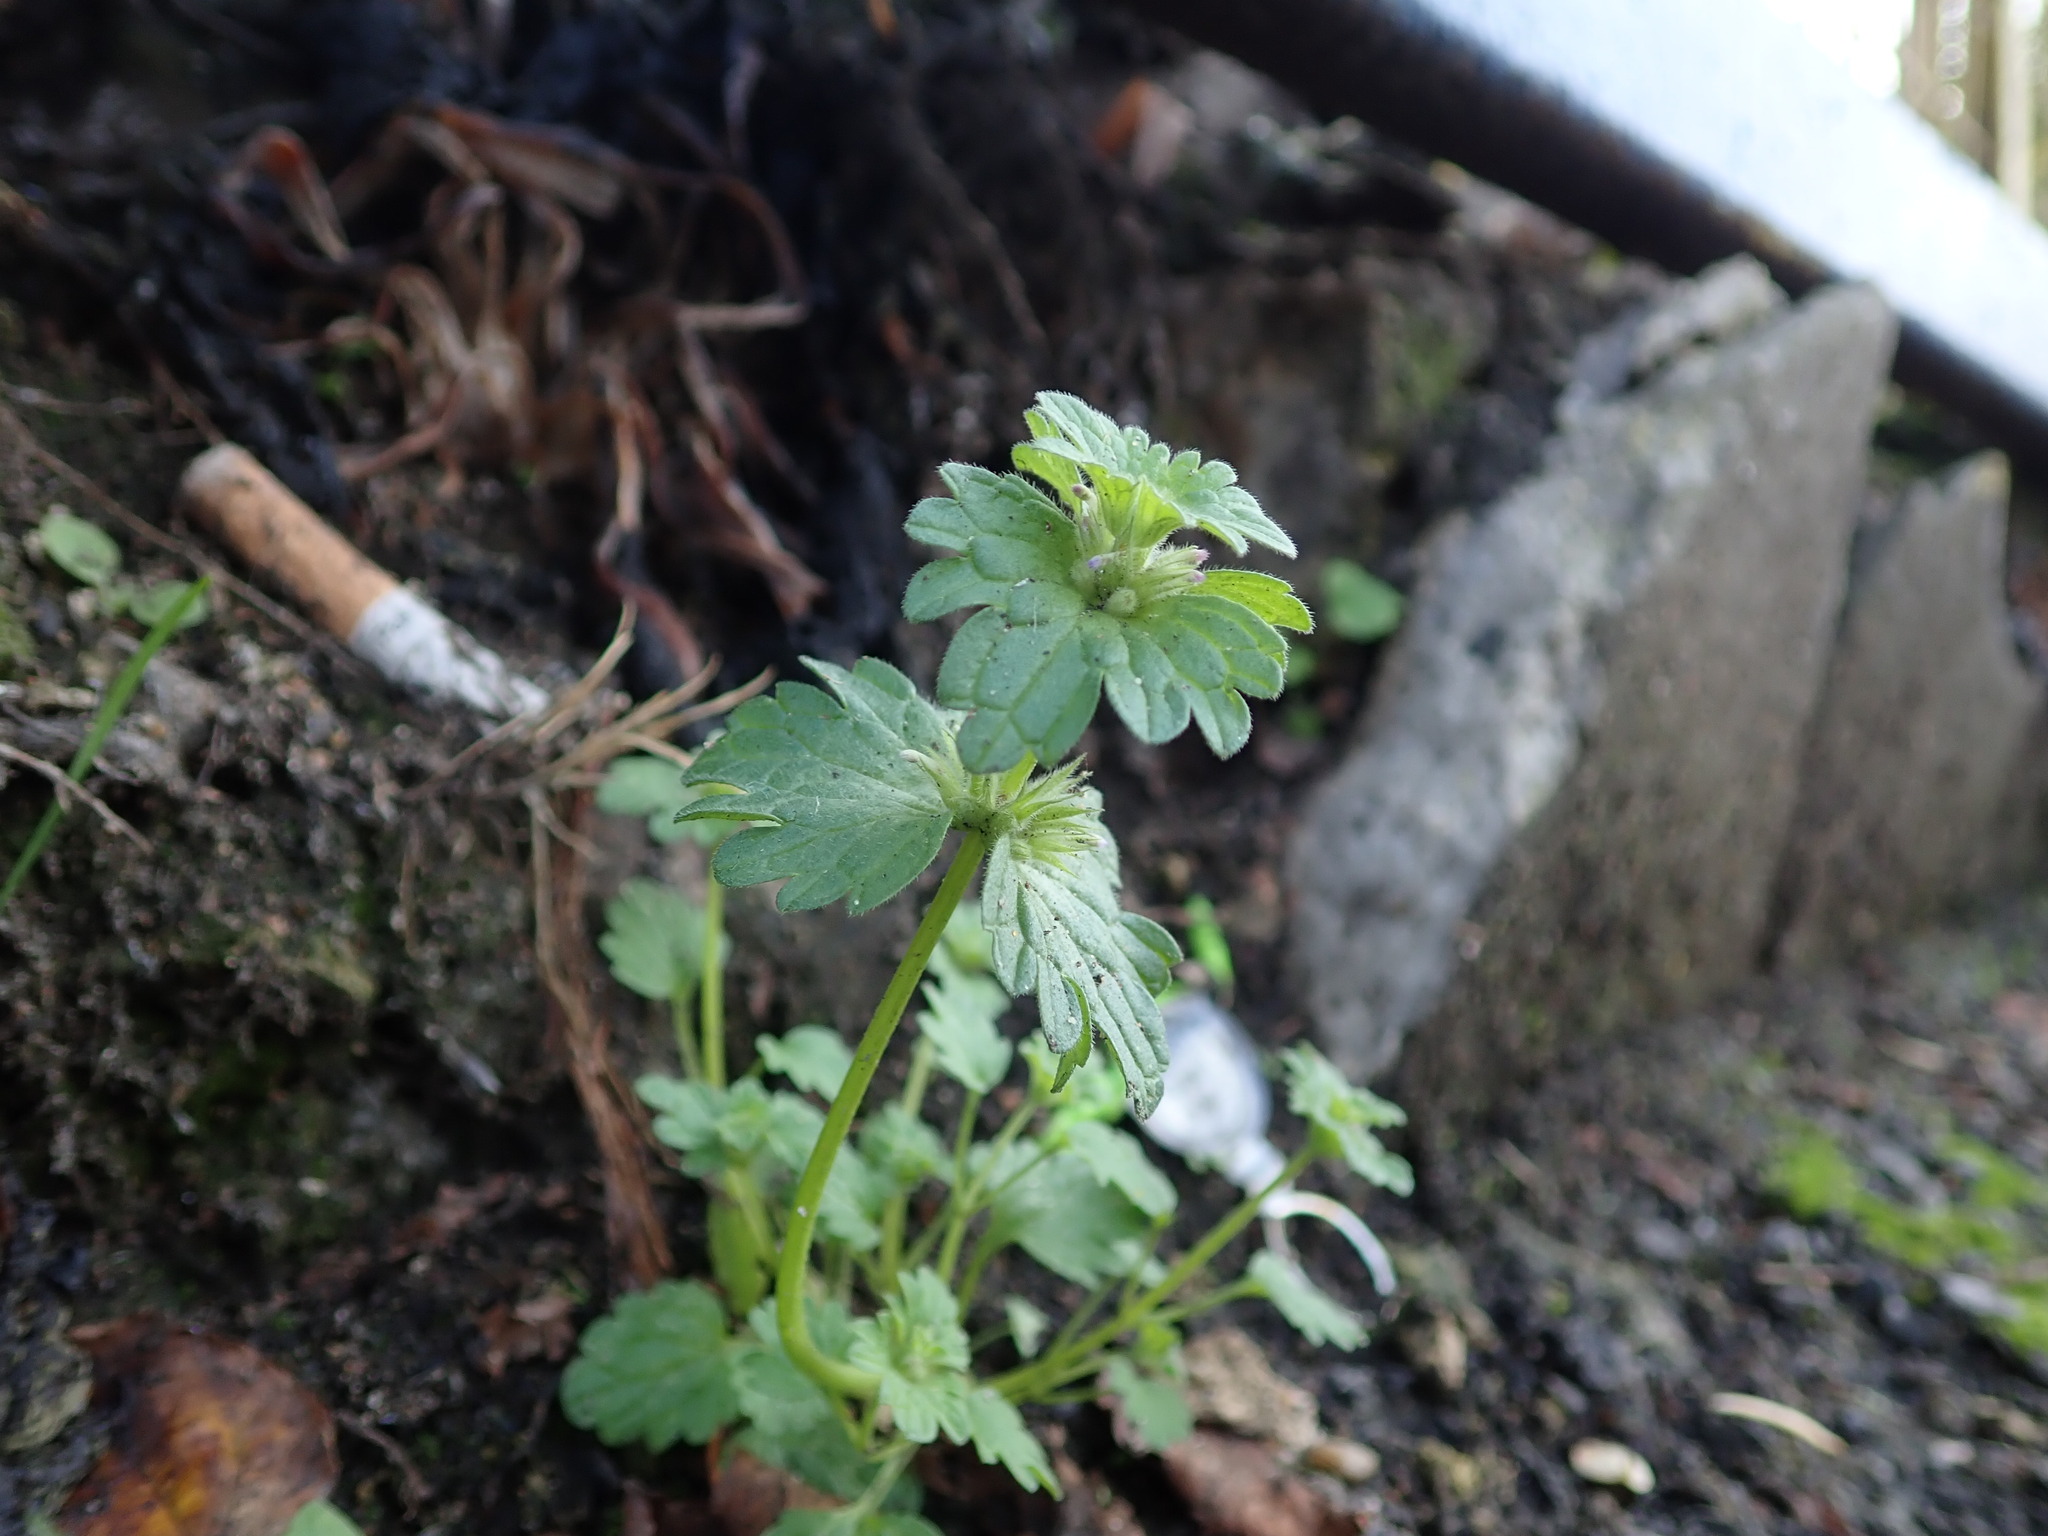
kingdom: Plantae
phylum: Tracheophyta
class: Magnoliopsida
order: Lamiales
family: Lamiaceae
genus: Lamium
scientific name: Lamium amplexicaule
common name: Henbit dead-nettle
